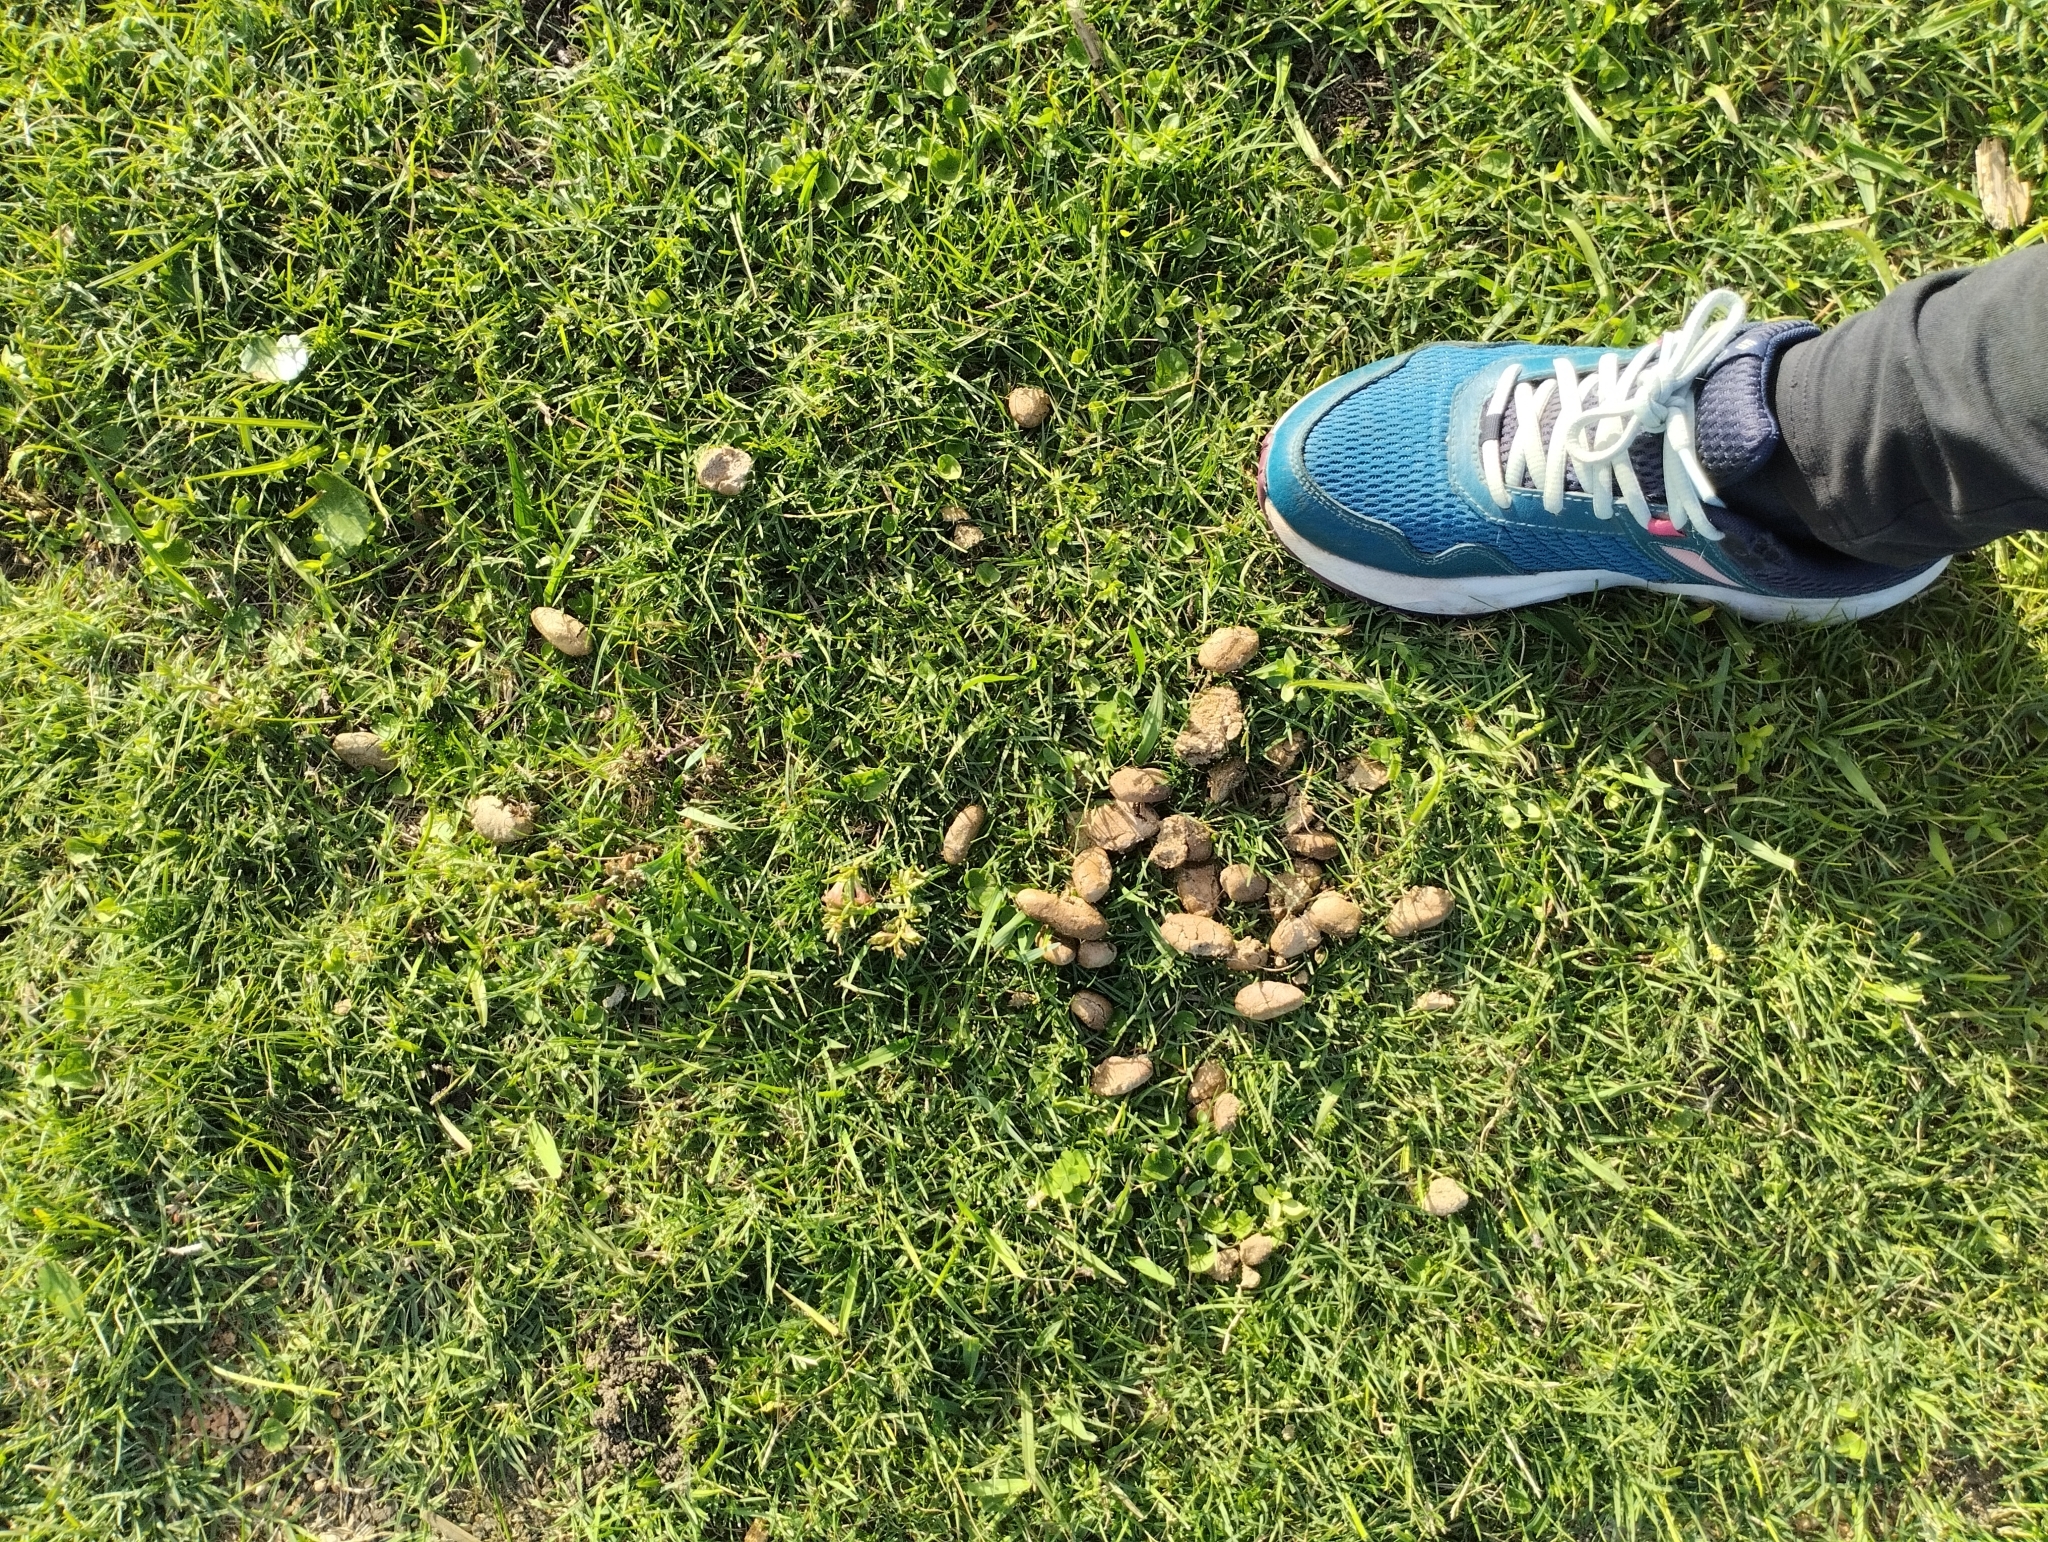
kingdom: Animalia
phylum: Chordata
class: Mammalia
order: Rodentia
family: Caviidae
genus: Hydrochoerus
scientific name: Hydrochoerus hydrochaeris
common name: Capybara
